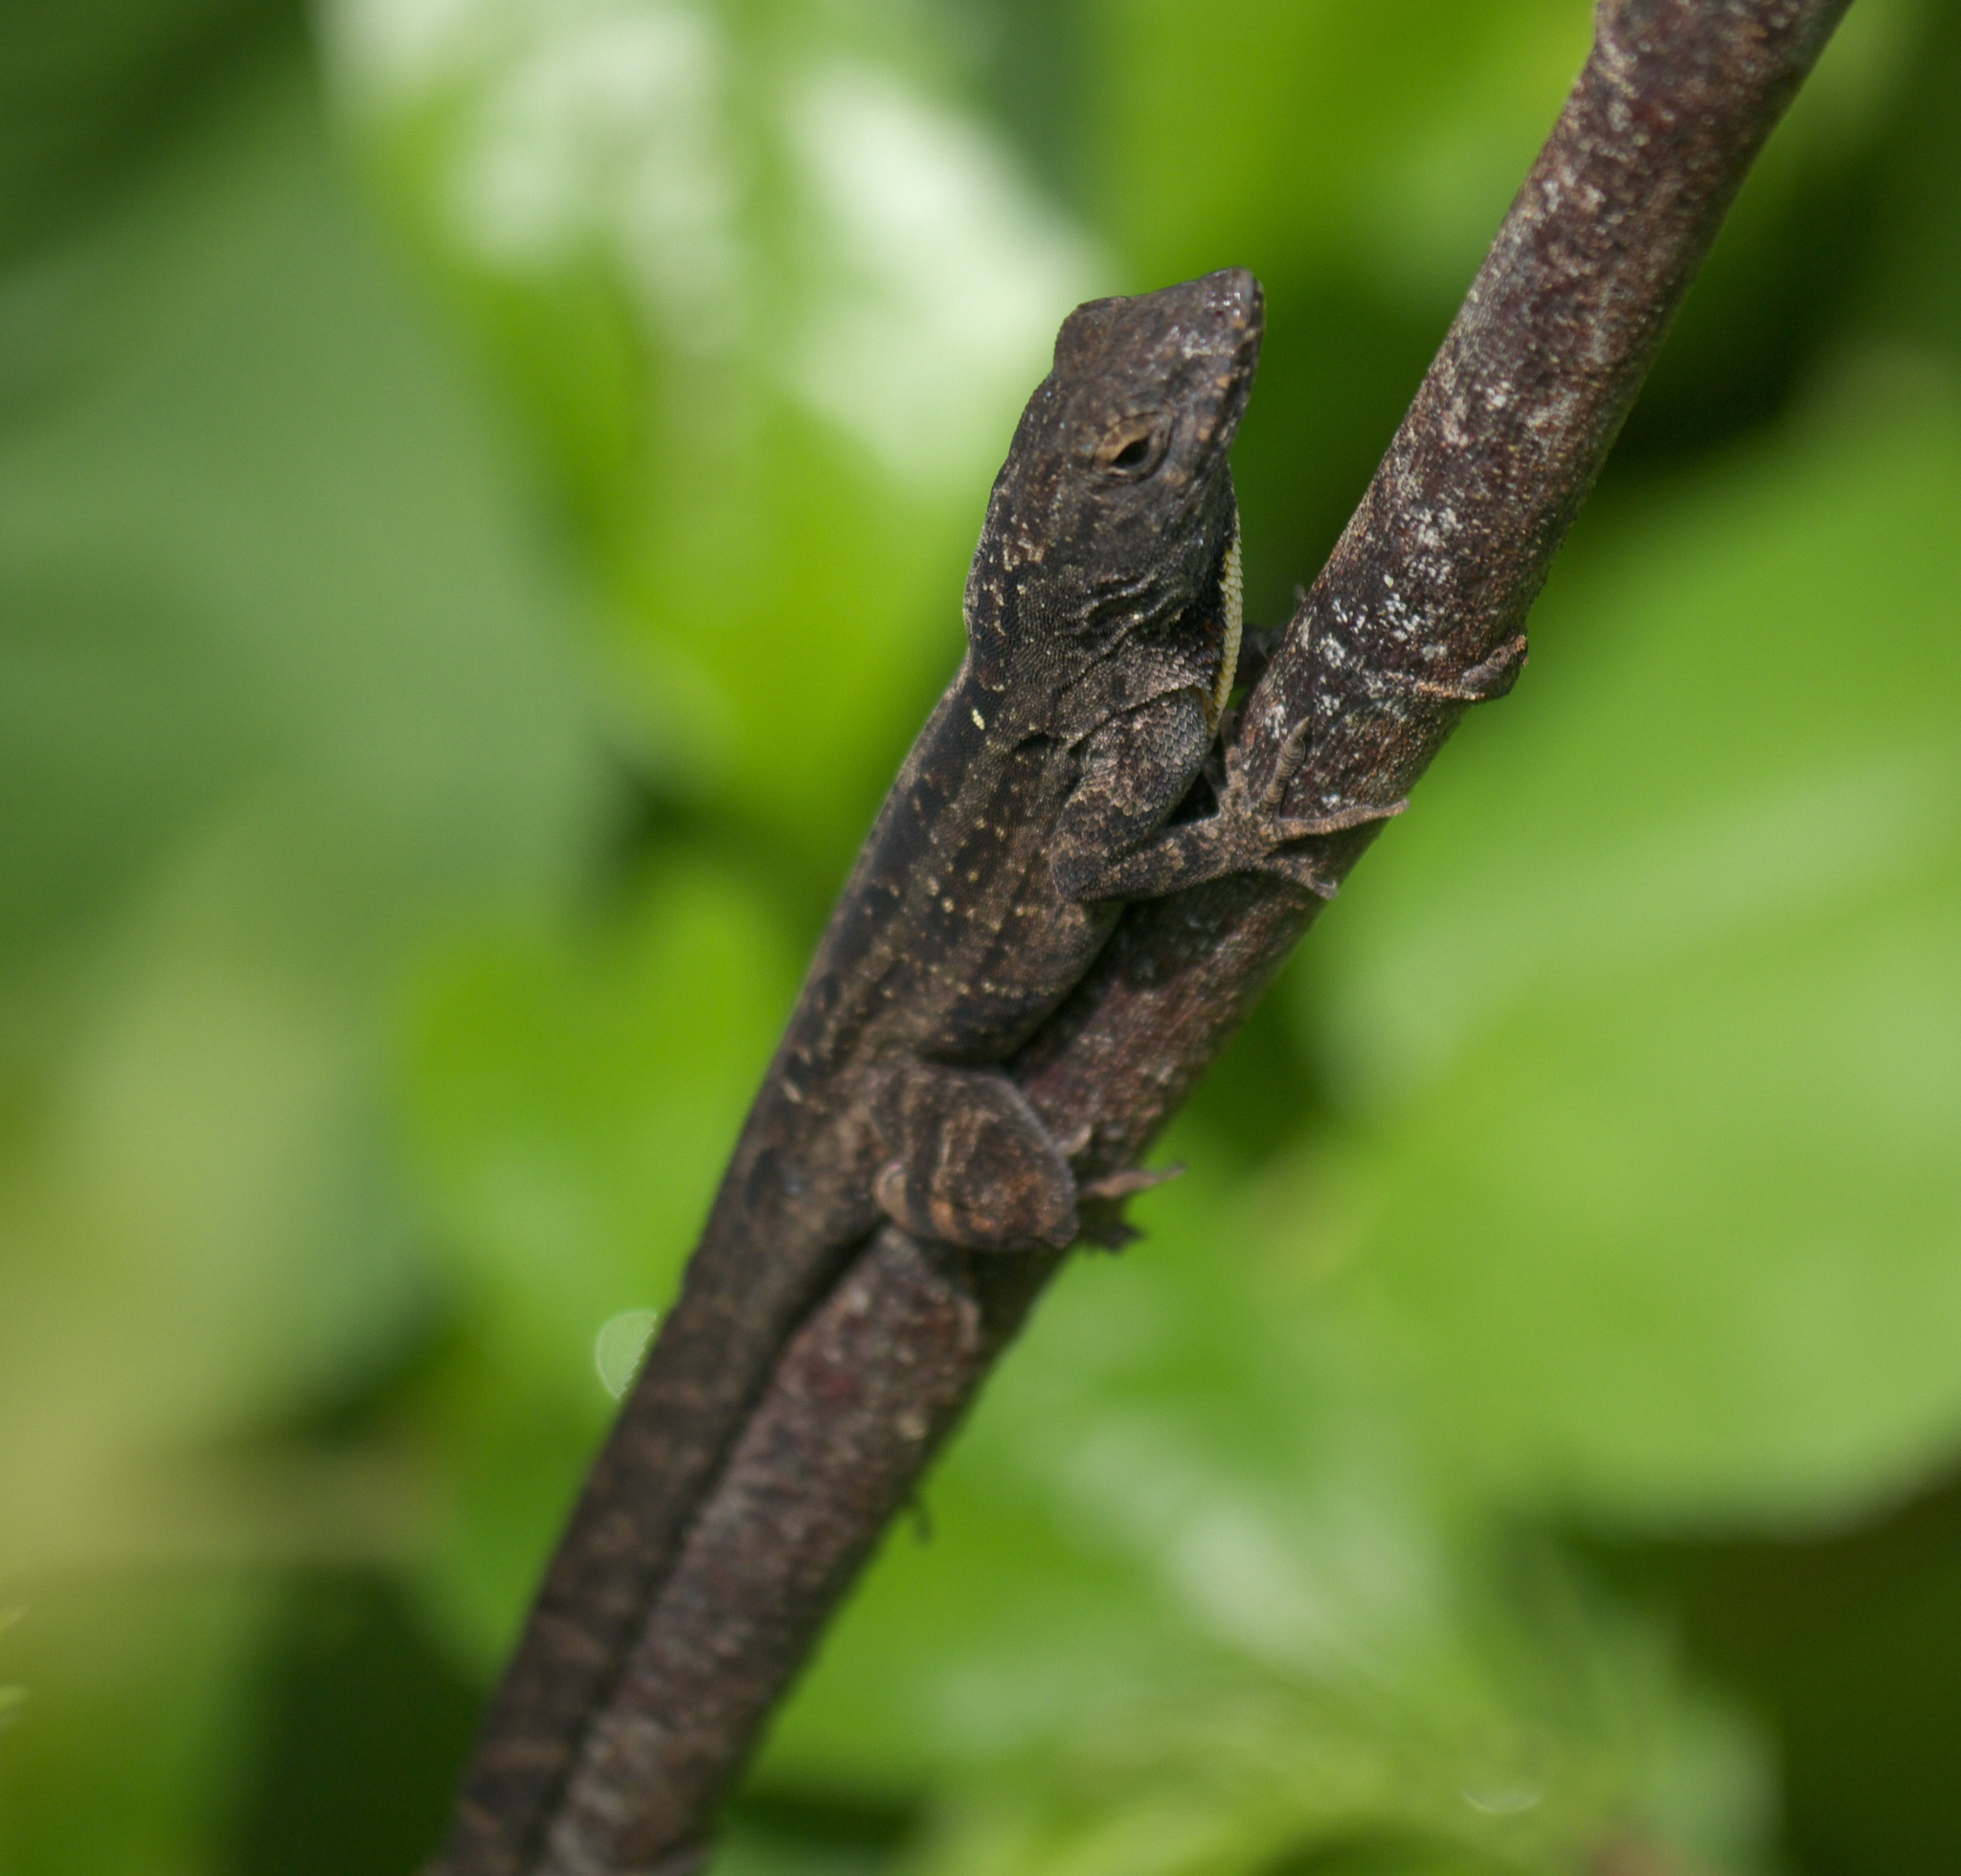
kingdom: Animalia
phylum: Chordata
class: Squamata
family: Dactyloidae
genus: Anolis
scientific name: Anolis sagrei
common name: Brown anole
